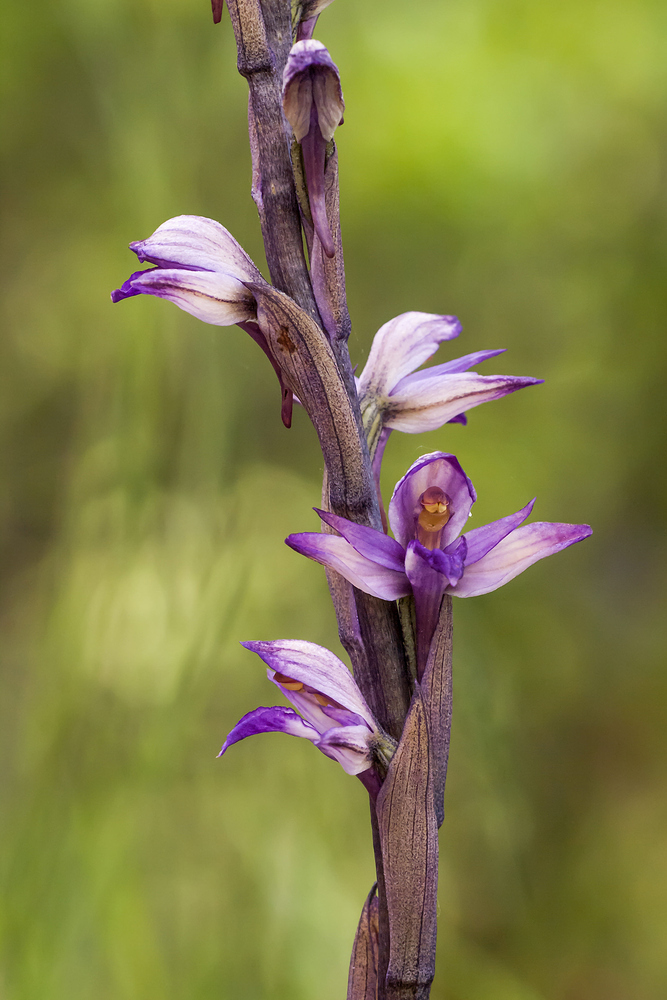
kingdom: Plantae
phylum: Tracheophyta
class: Liliopsida
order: Asparagales
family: Orchidaceae
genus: Limodorum
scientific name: Limodorum abortivum
